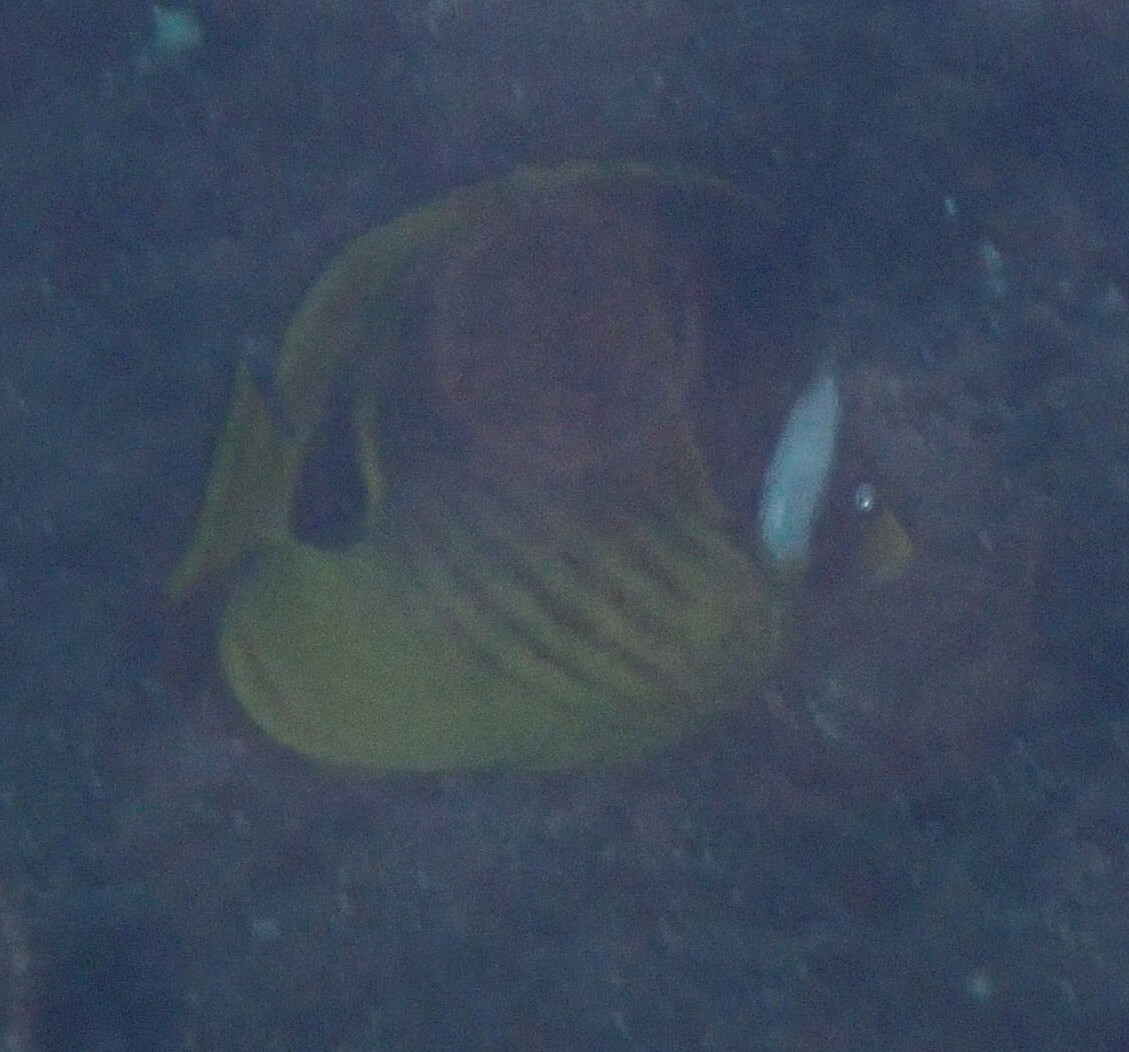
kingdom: Animalia
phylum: Chordata
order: Perciformes
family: Chaetodontidae
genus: Chaetodon
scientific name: Chaetodon lunula
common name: Raccoon butterflyfish
